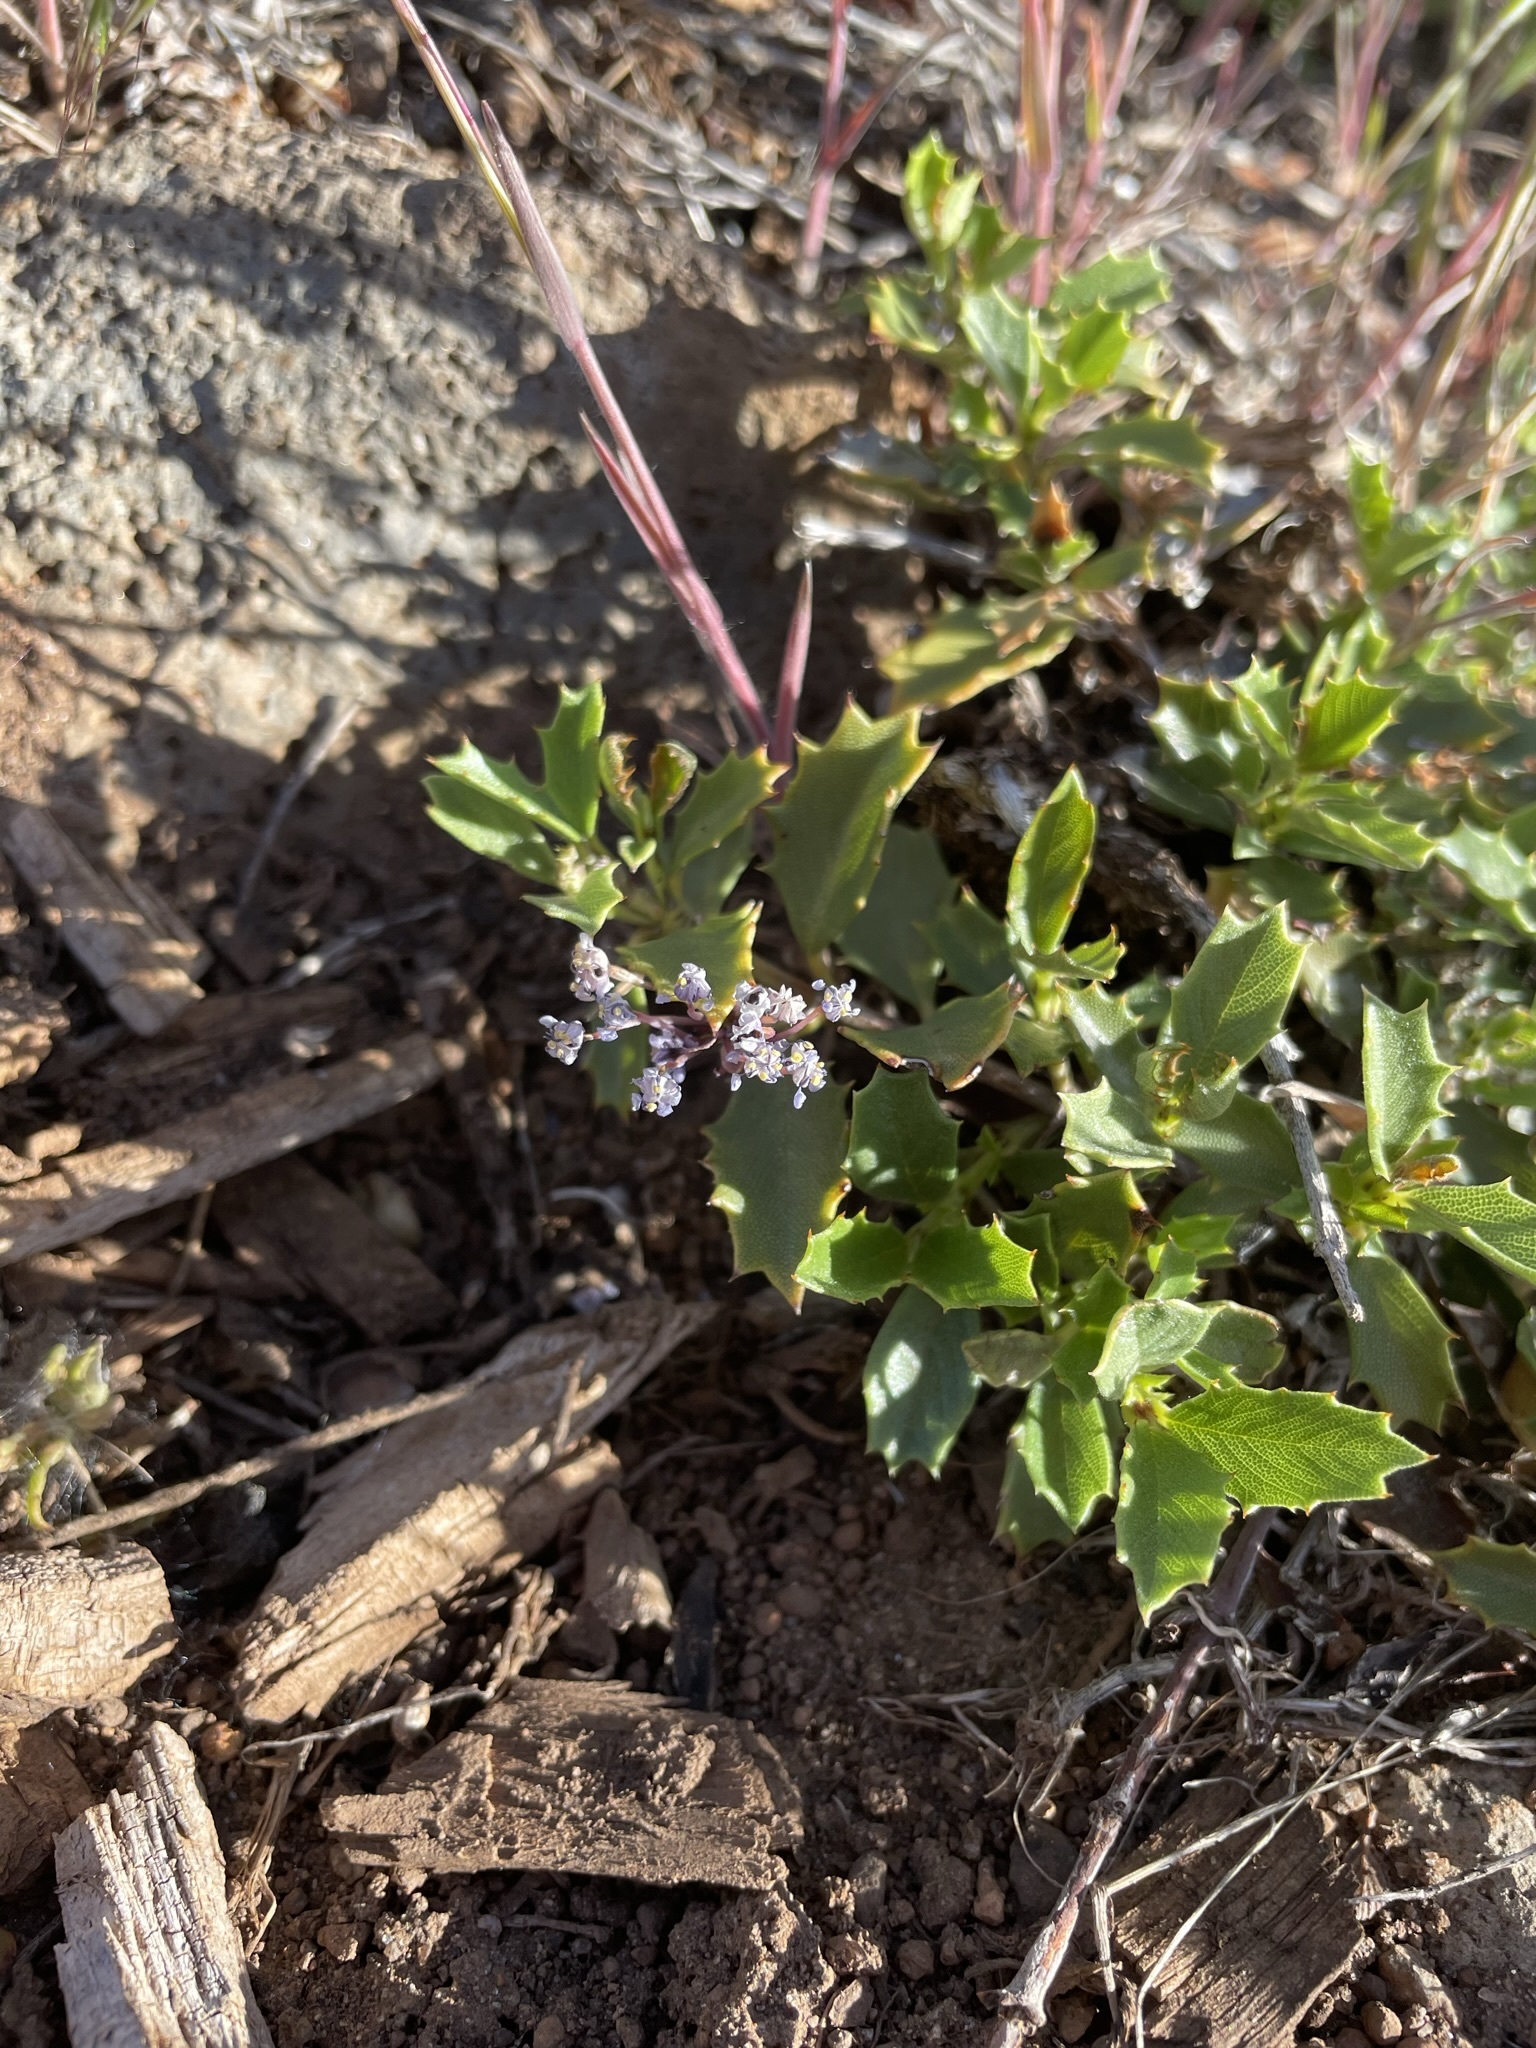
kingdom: Plantae
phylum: Tracheophyta
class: Magnoliopsida
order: Rosales
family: Rhamnaceae
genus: Ceanothus
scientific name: Ceanothus prostratus
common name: Mahala-mat
